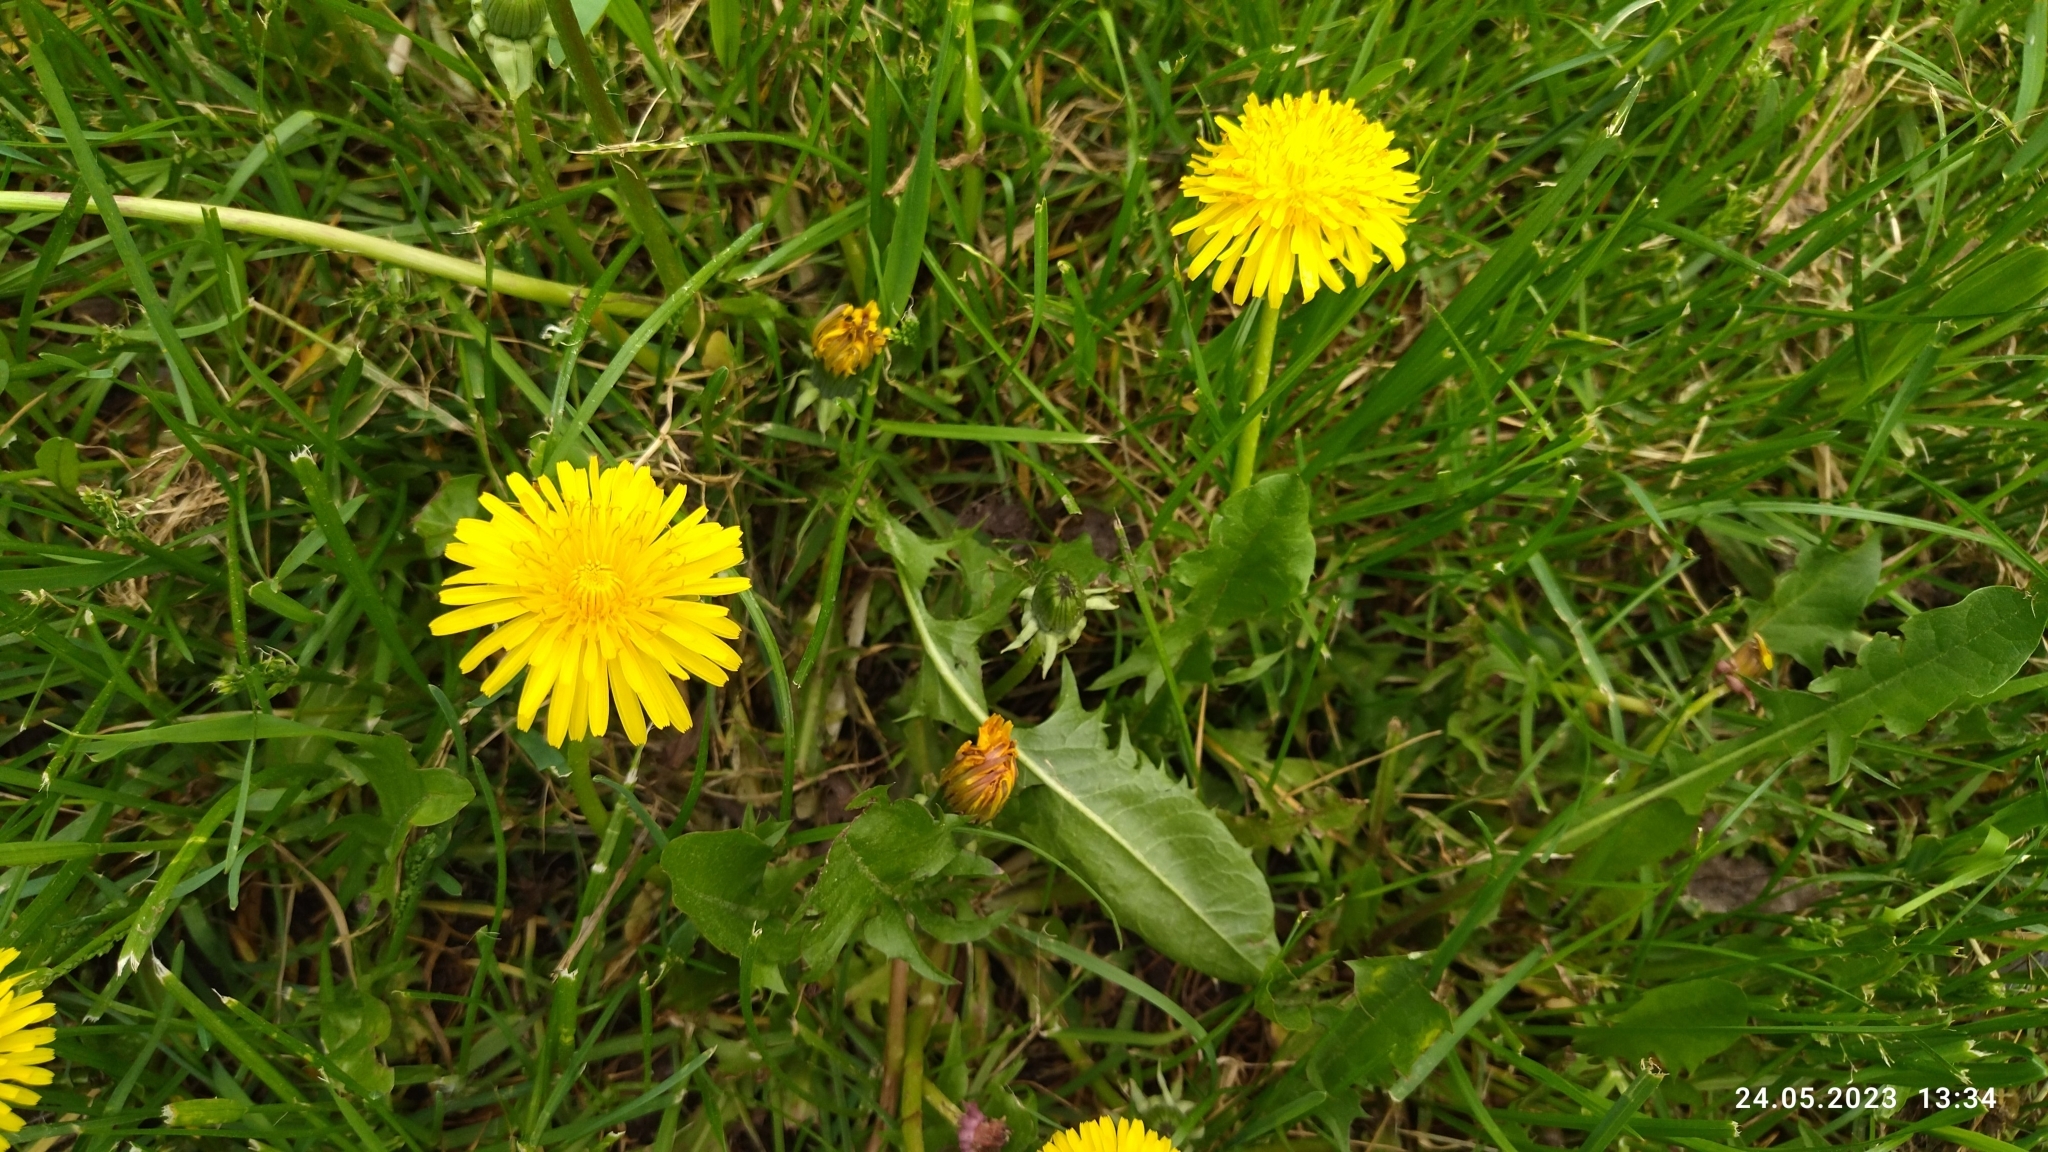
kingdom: Plantae
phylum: Tracheophyta
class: Magnoliopsida
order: Asterales
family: Asteraceae
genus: Taraxacum
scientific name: Taraxacum officinale
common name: Common dandelion
